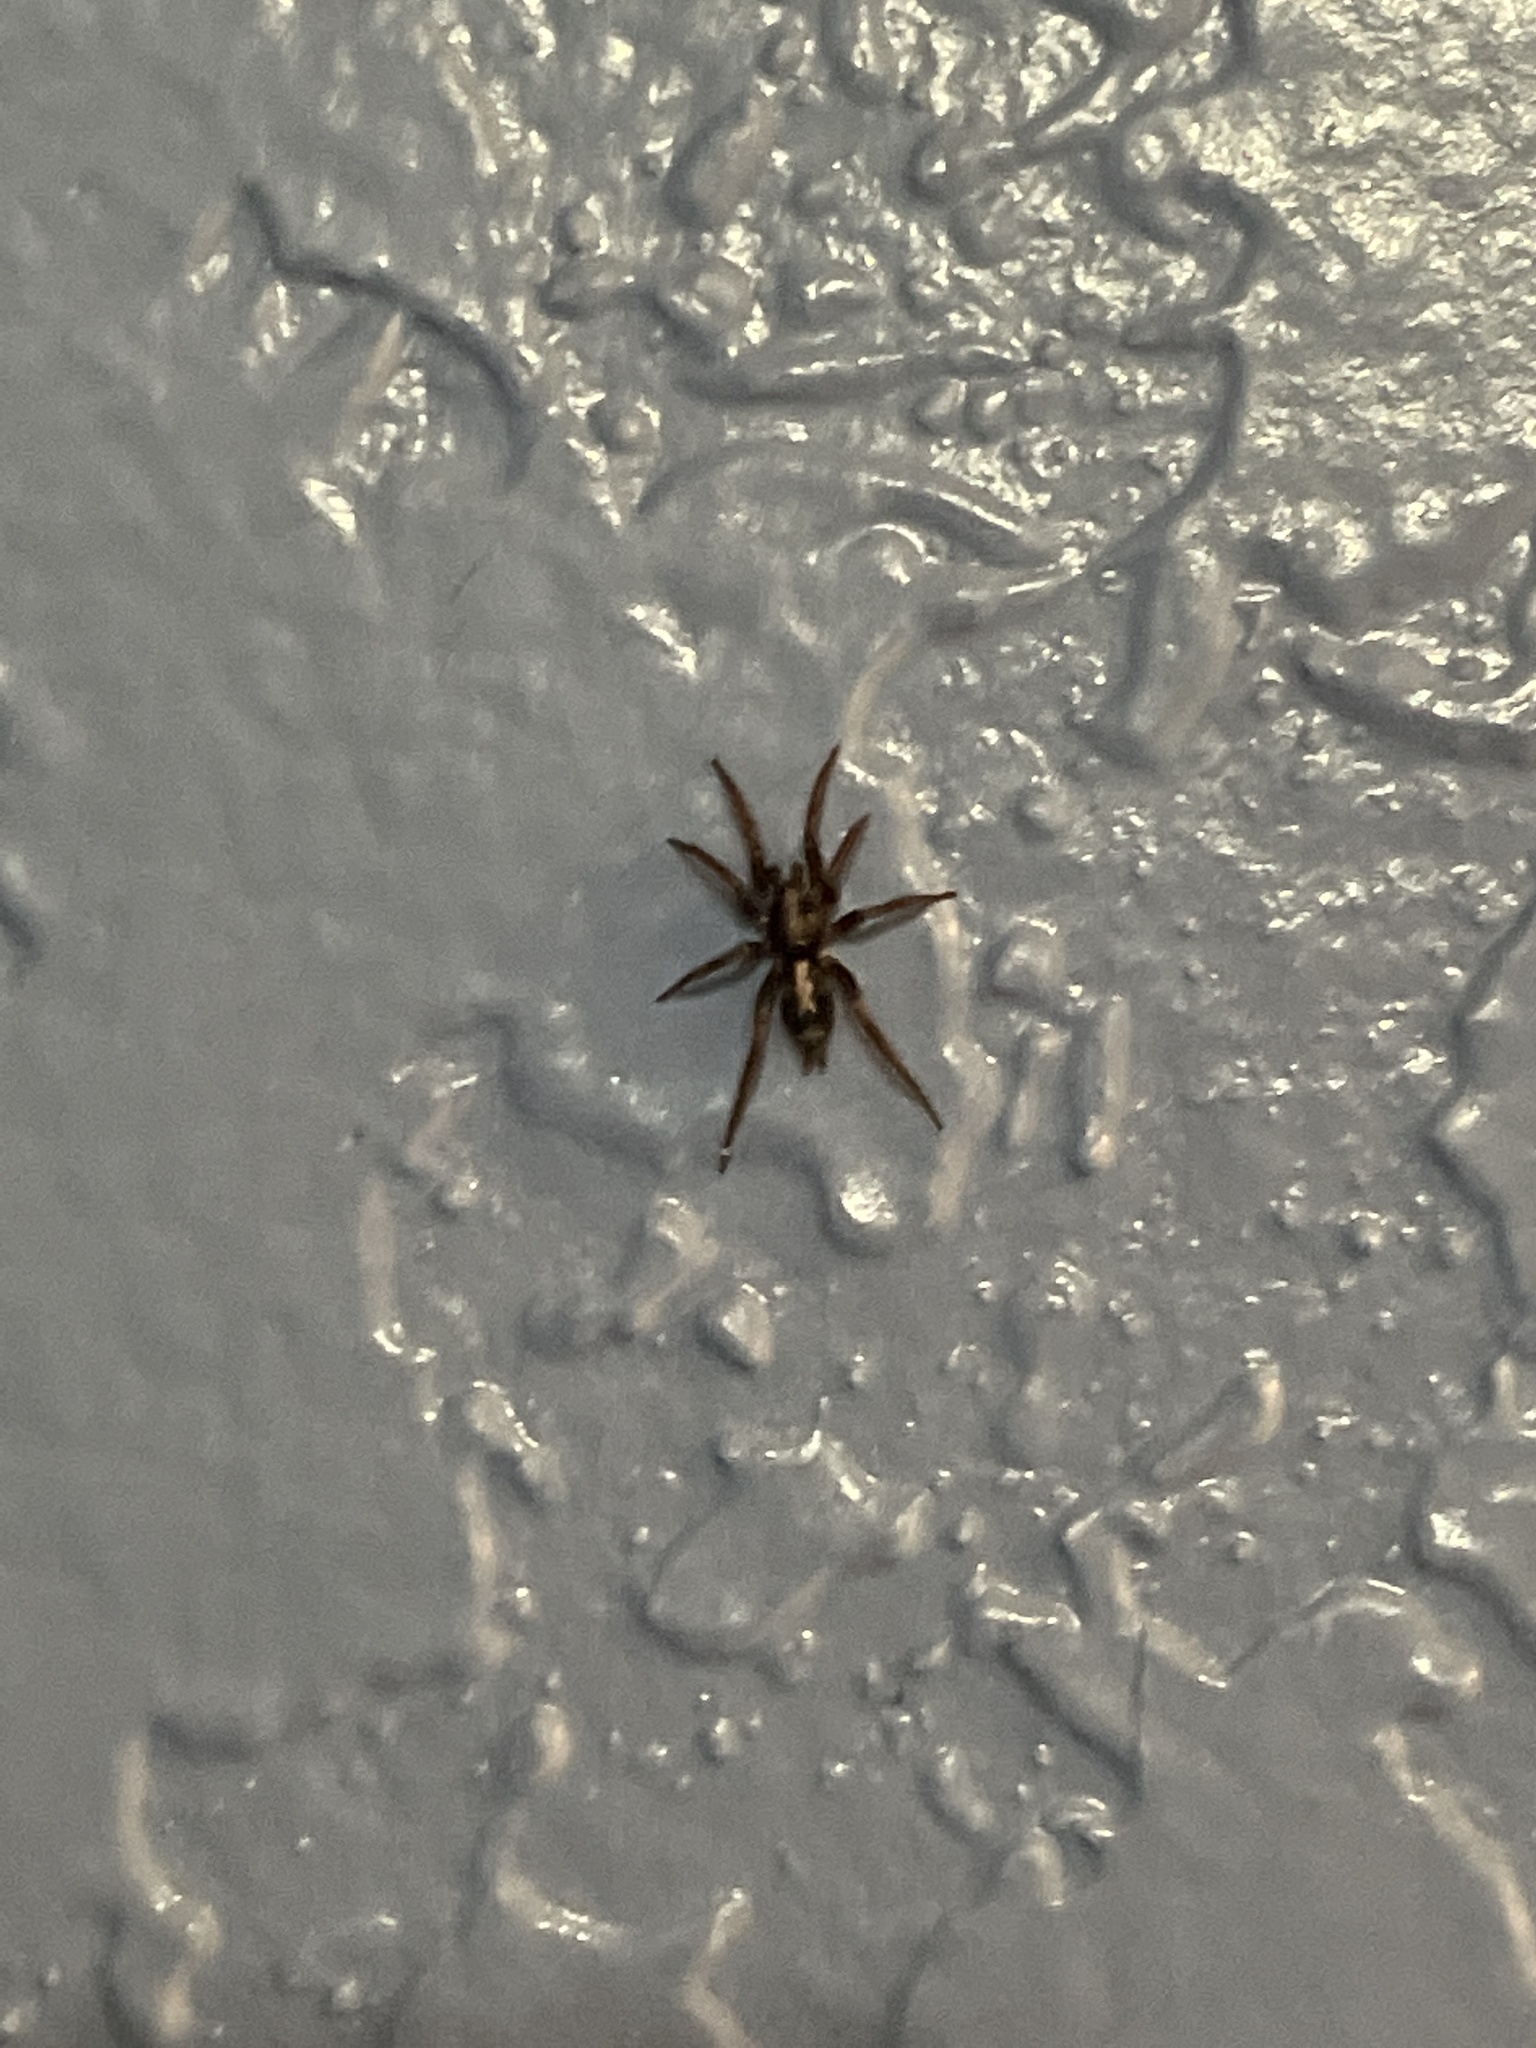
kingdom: Animalia
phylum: Arthropoda
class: Arachnida
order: Araneae
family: Gnaphosidae
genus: Herpyllus
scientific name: Herpyllus ecclesiasticus
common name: Eastern parson spider
